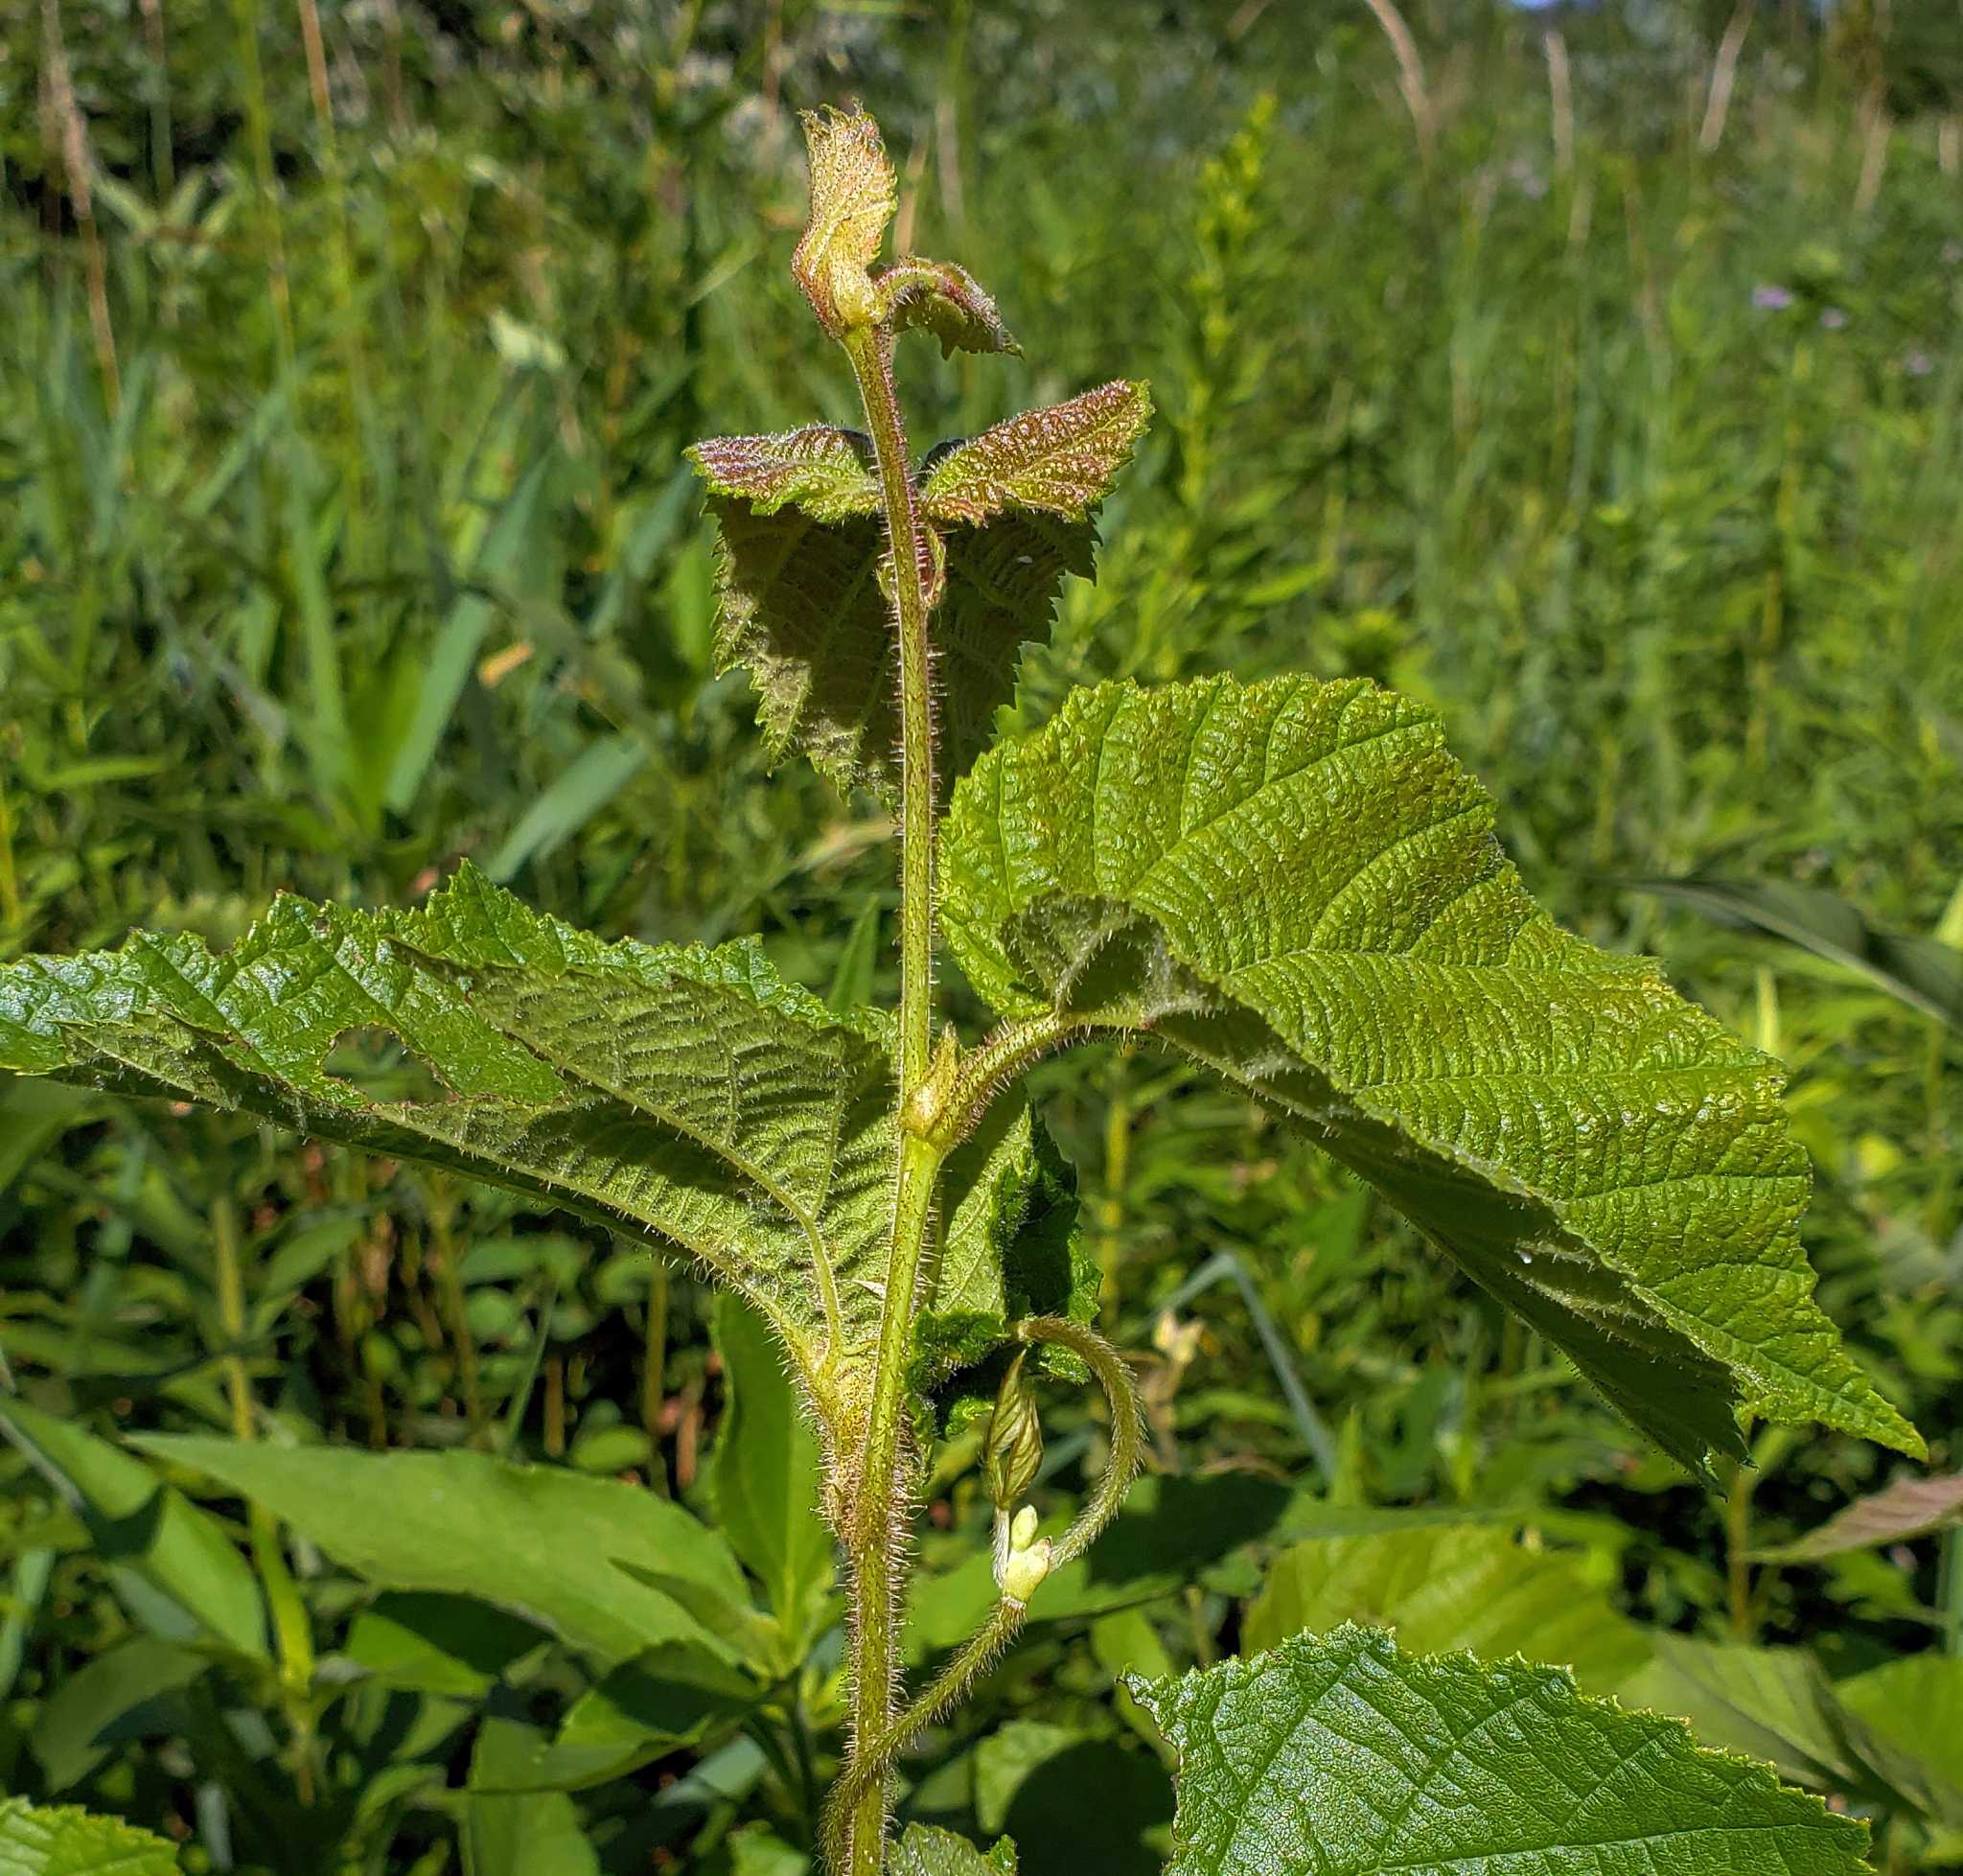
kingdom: Plantae
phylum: Tracheophyta
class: Magnoliopsida
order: Fagales
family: Betulaceae
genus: Corylus
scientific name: Corylus americana
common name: American hazel
